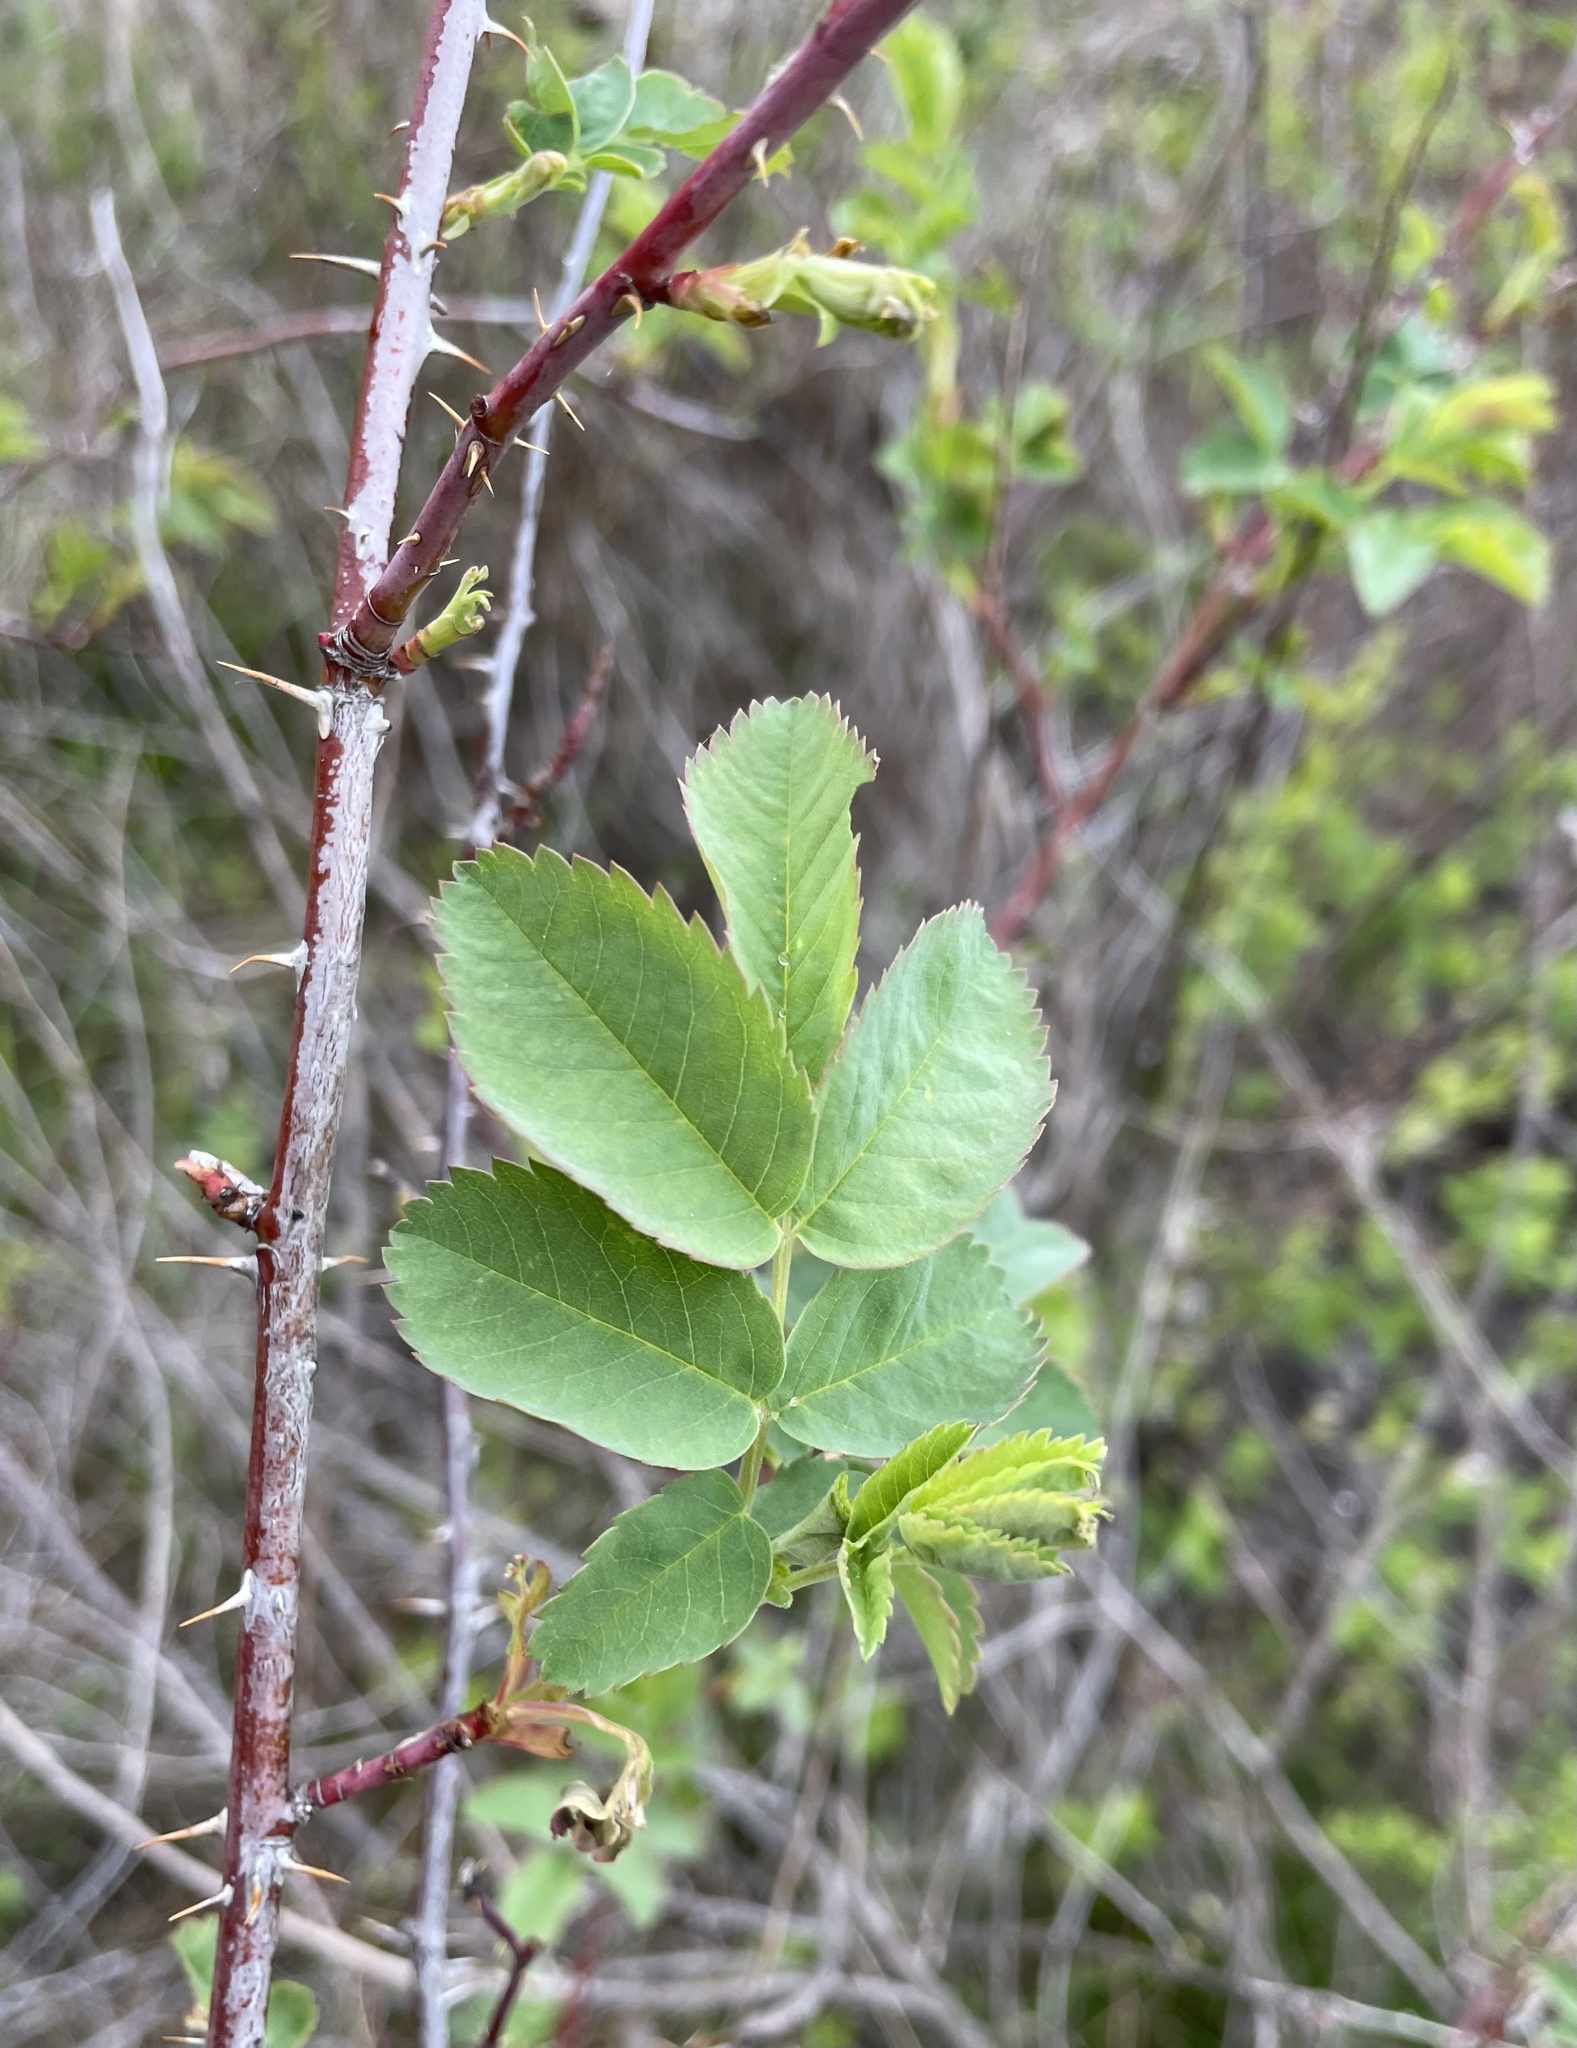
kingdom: Animalia
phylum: Arthropoda
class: Insecta
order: Hymenoptera
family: Cynipidae
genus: Diplolepis
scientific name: Diplolepis spinosa
